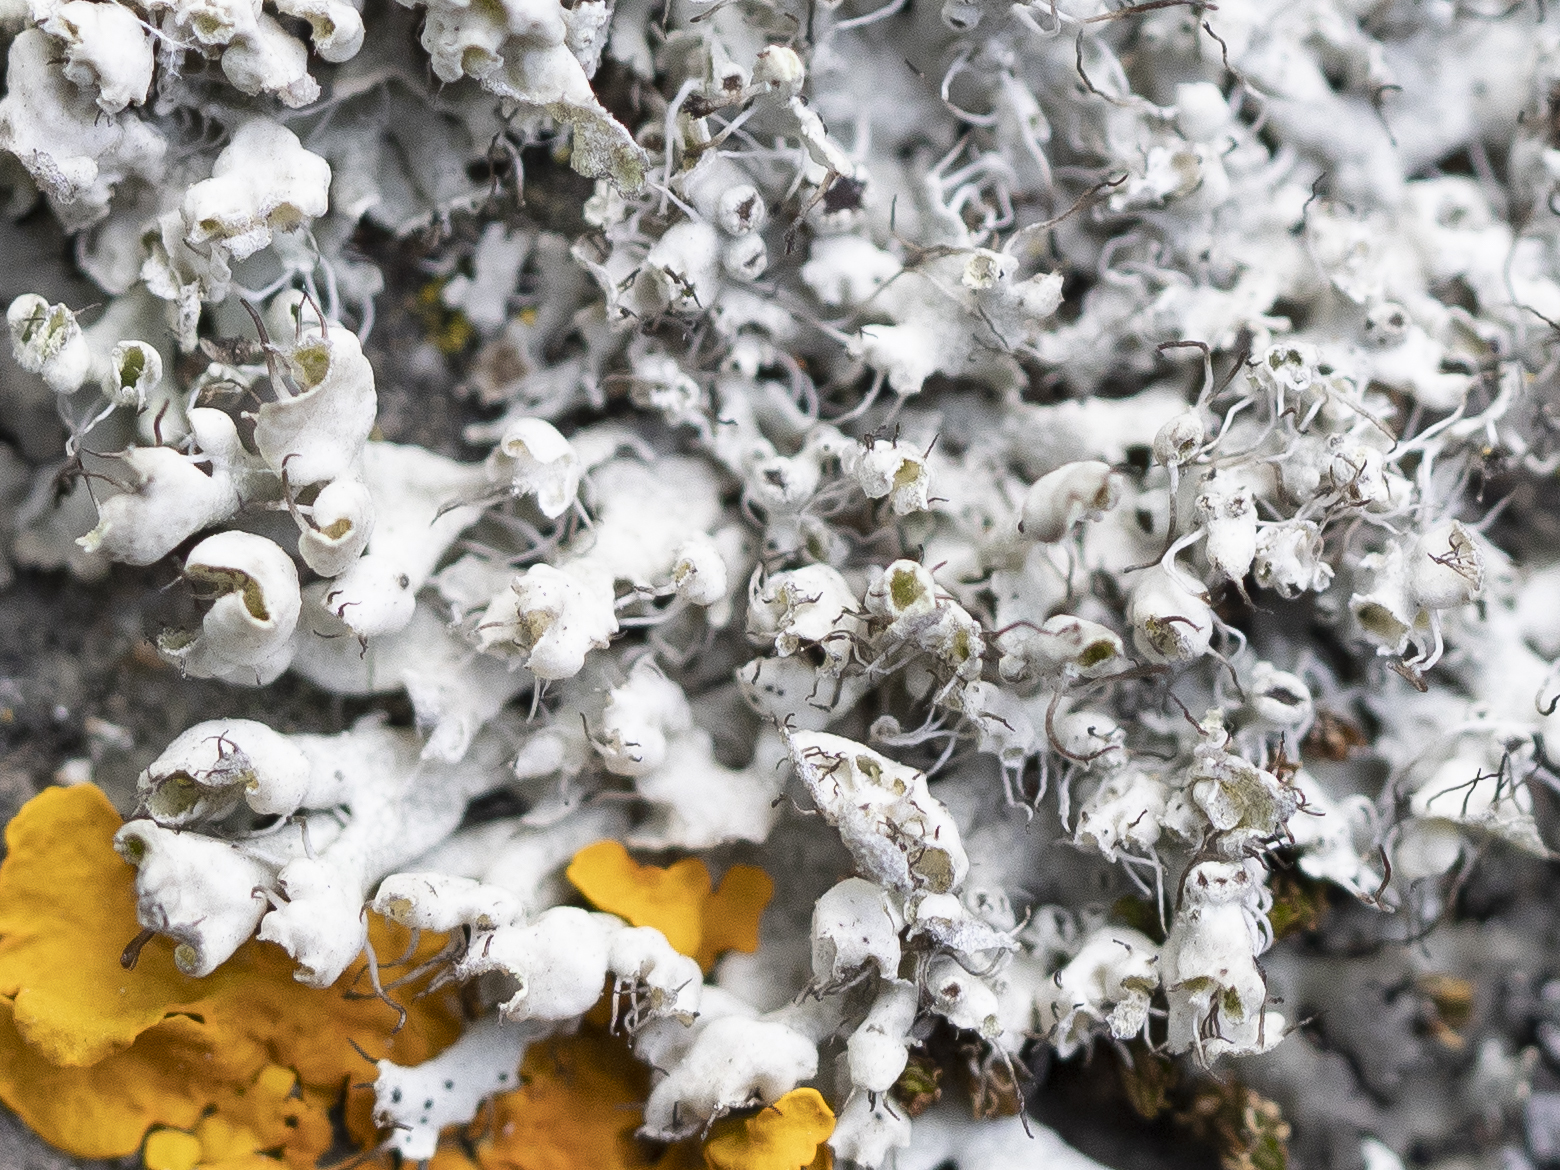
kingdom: Fungi
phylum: Ascomycota
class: Lecanoromycetes
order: Caliciales
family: Physciaceae
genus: Physcia
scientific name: Physcia adscendens
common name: Hooded rosette lichen
